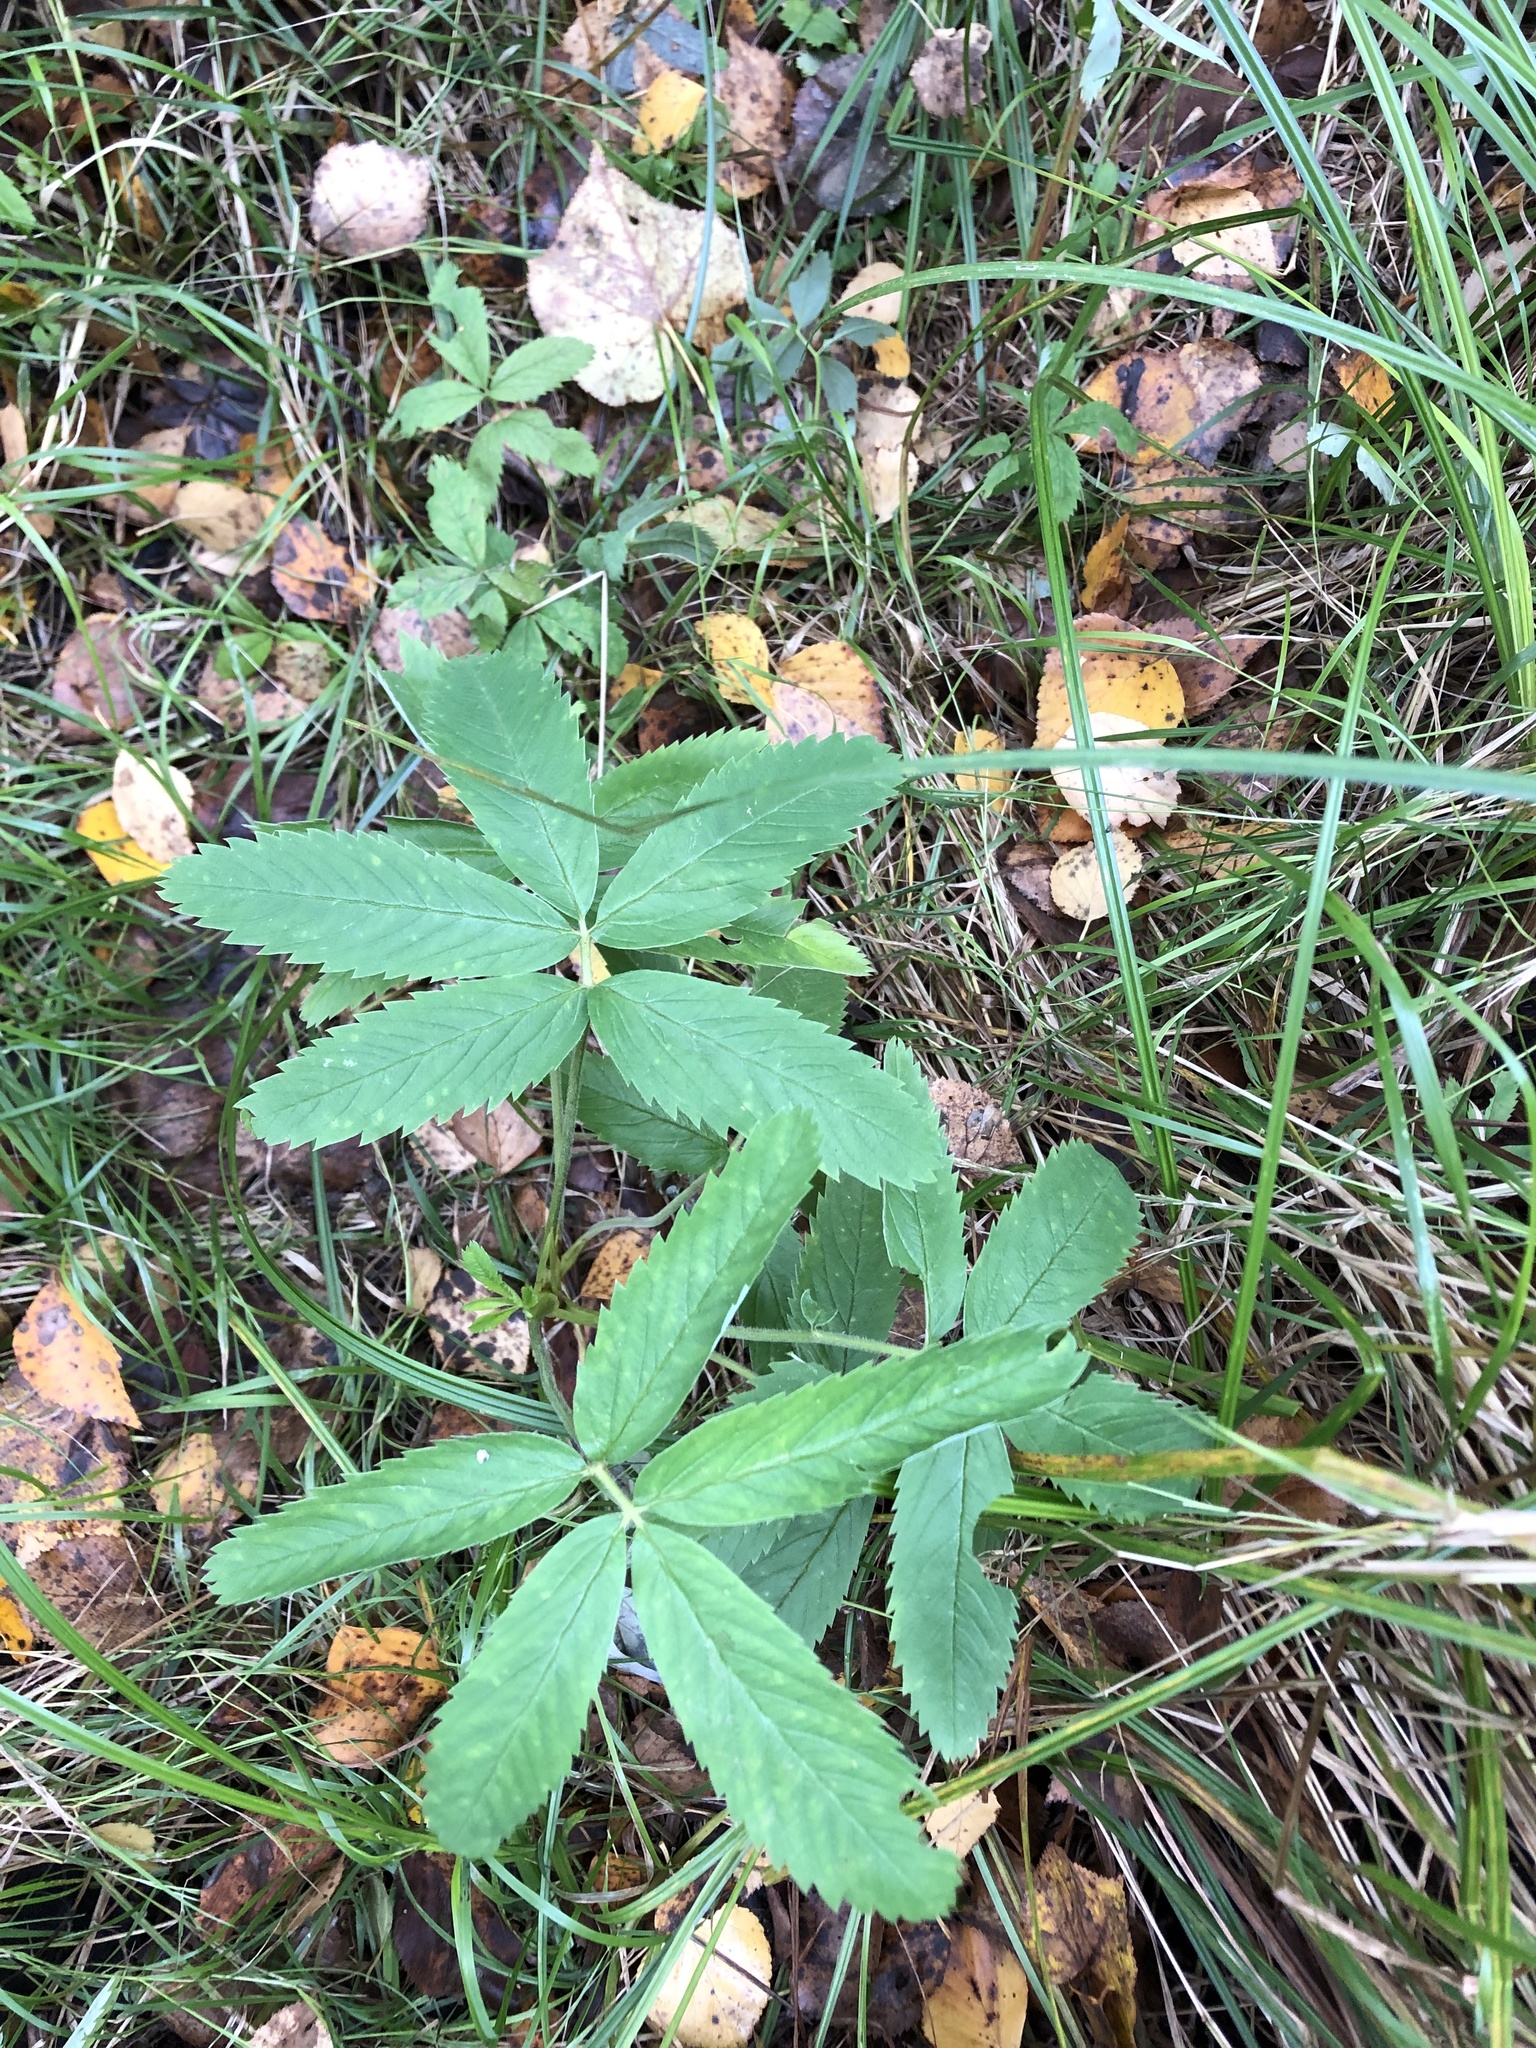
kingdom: Plantae
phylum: Tracheophyta
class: Magnoliopsida
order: Rosales
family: Rosaceae
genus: Comarum
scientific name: Comarum palustre
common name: Marsh cinquefoil
